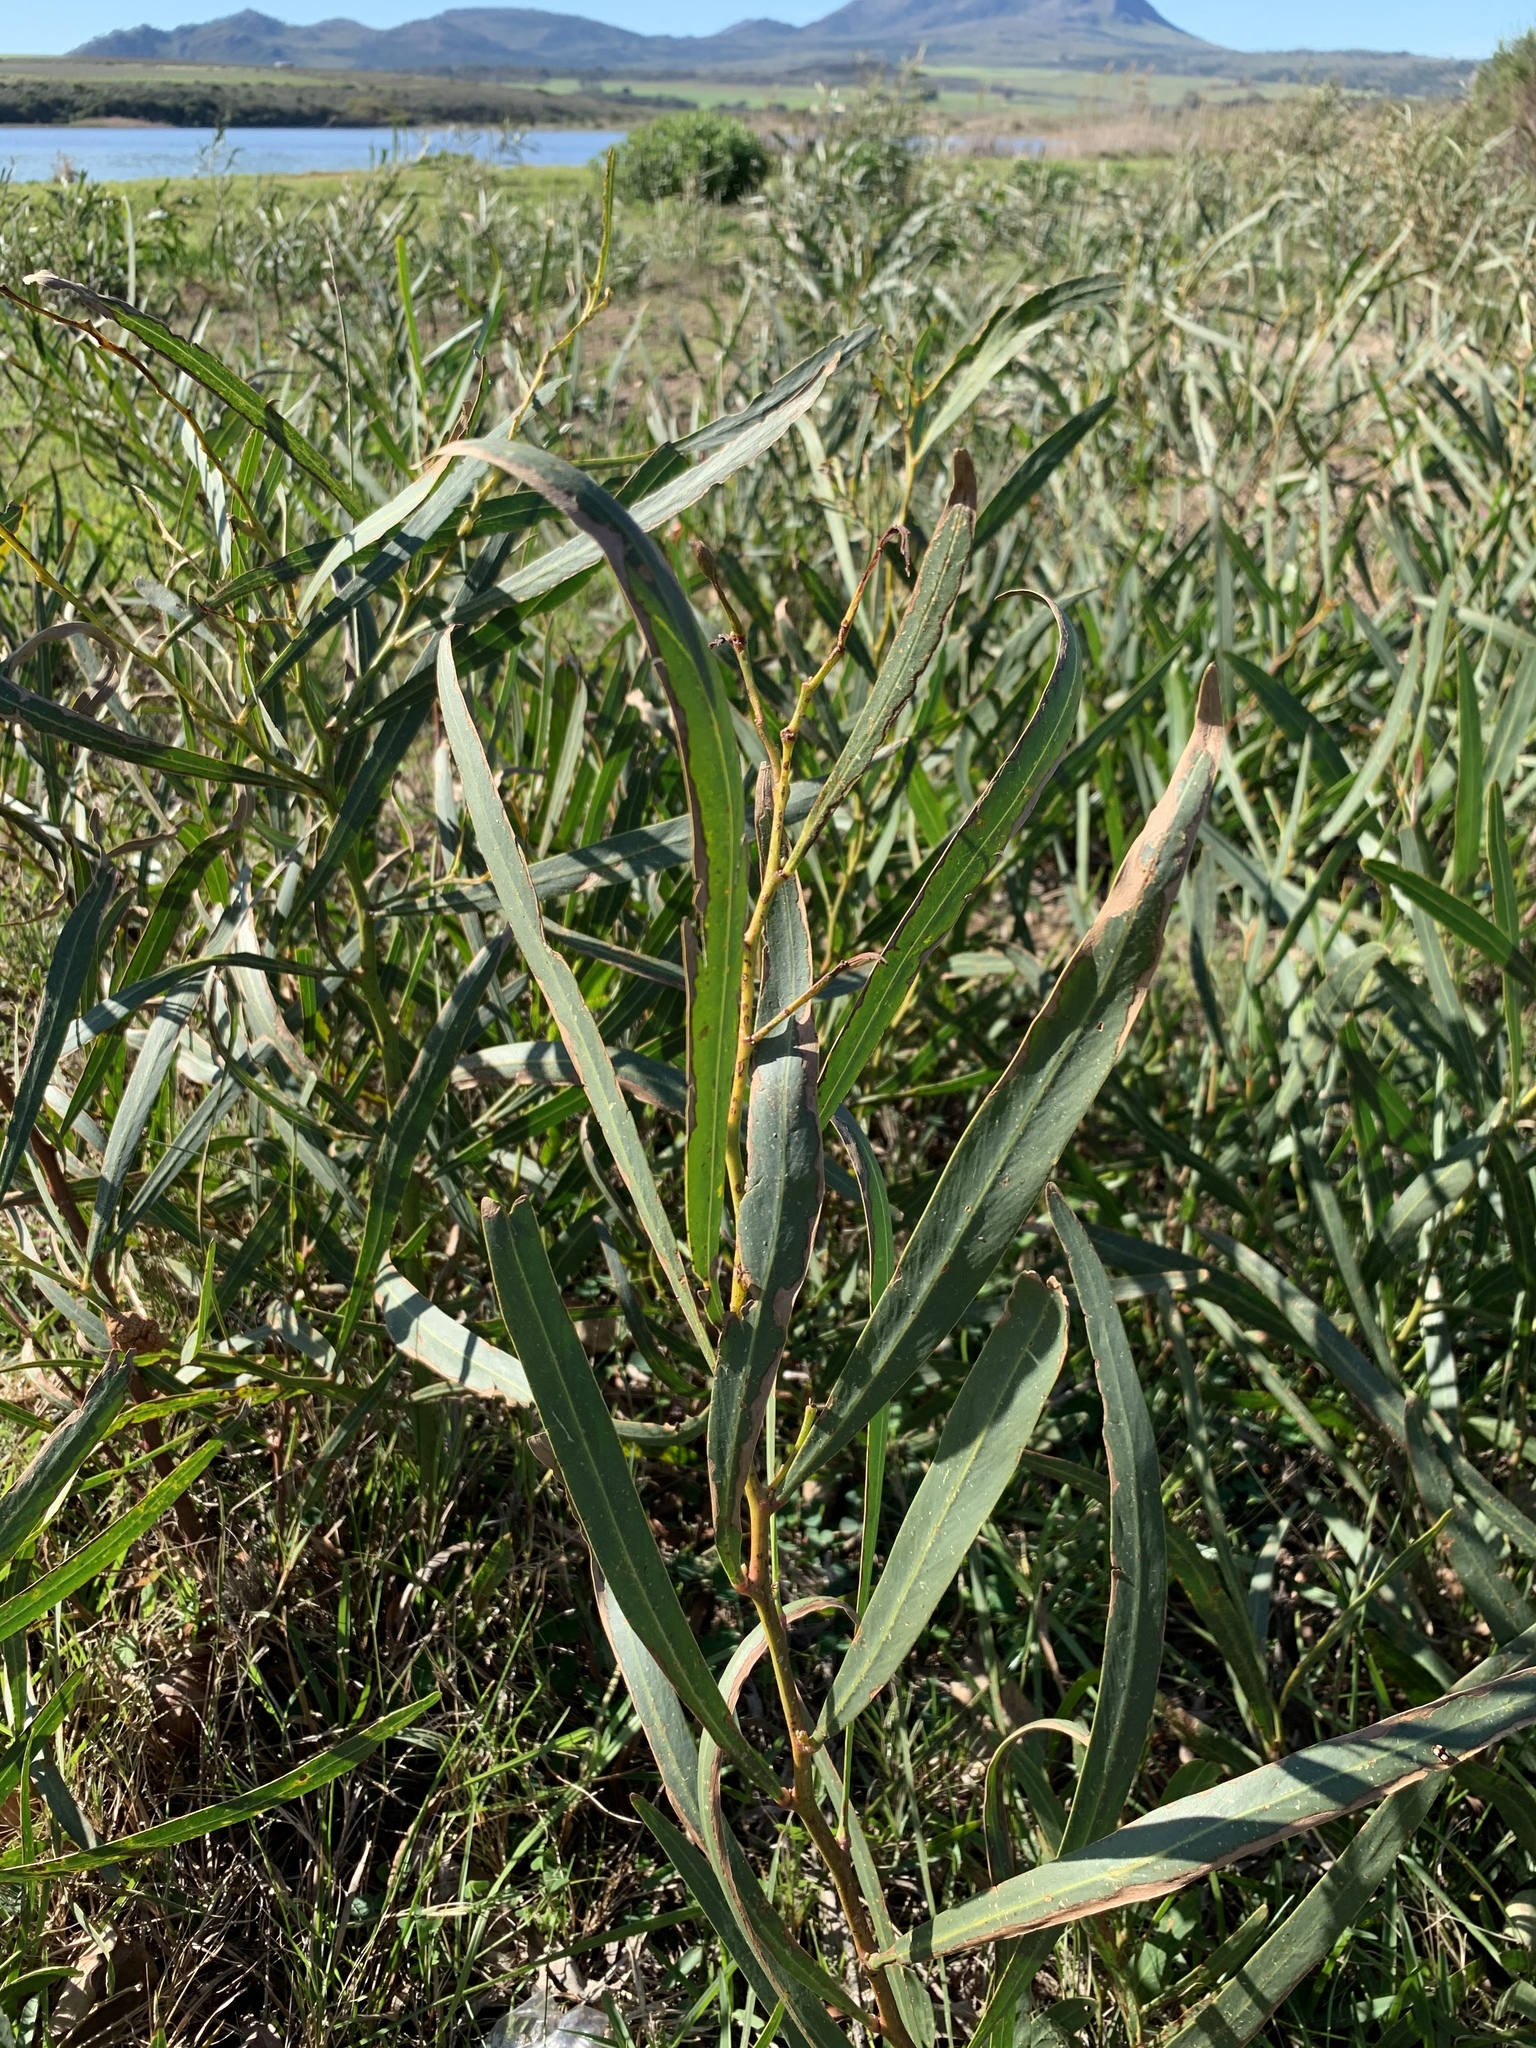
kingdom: Plantae
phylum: Tracheophyta
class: Magnoliopsida
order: Fabales
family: Fabaceae
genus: Acacia
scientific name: Acacia saligna
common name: Orange wattle
